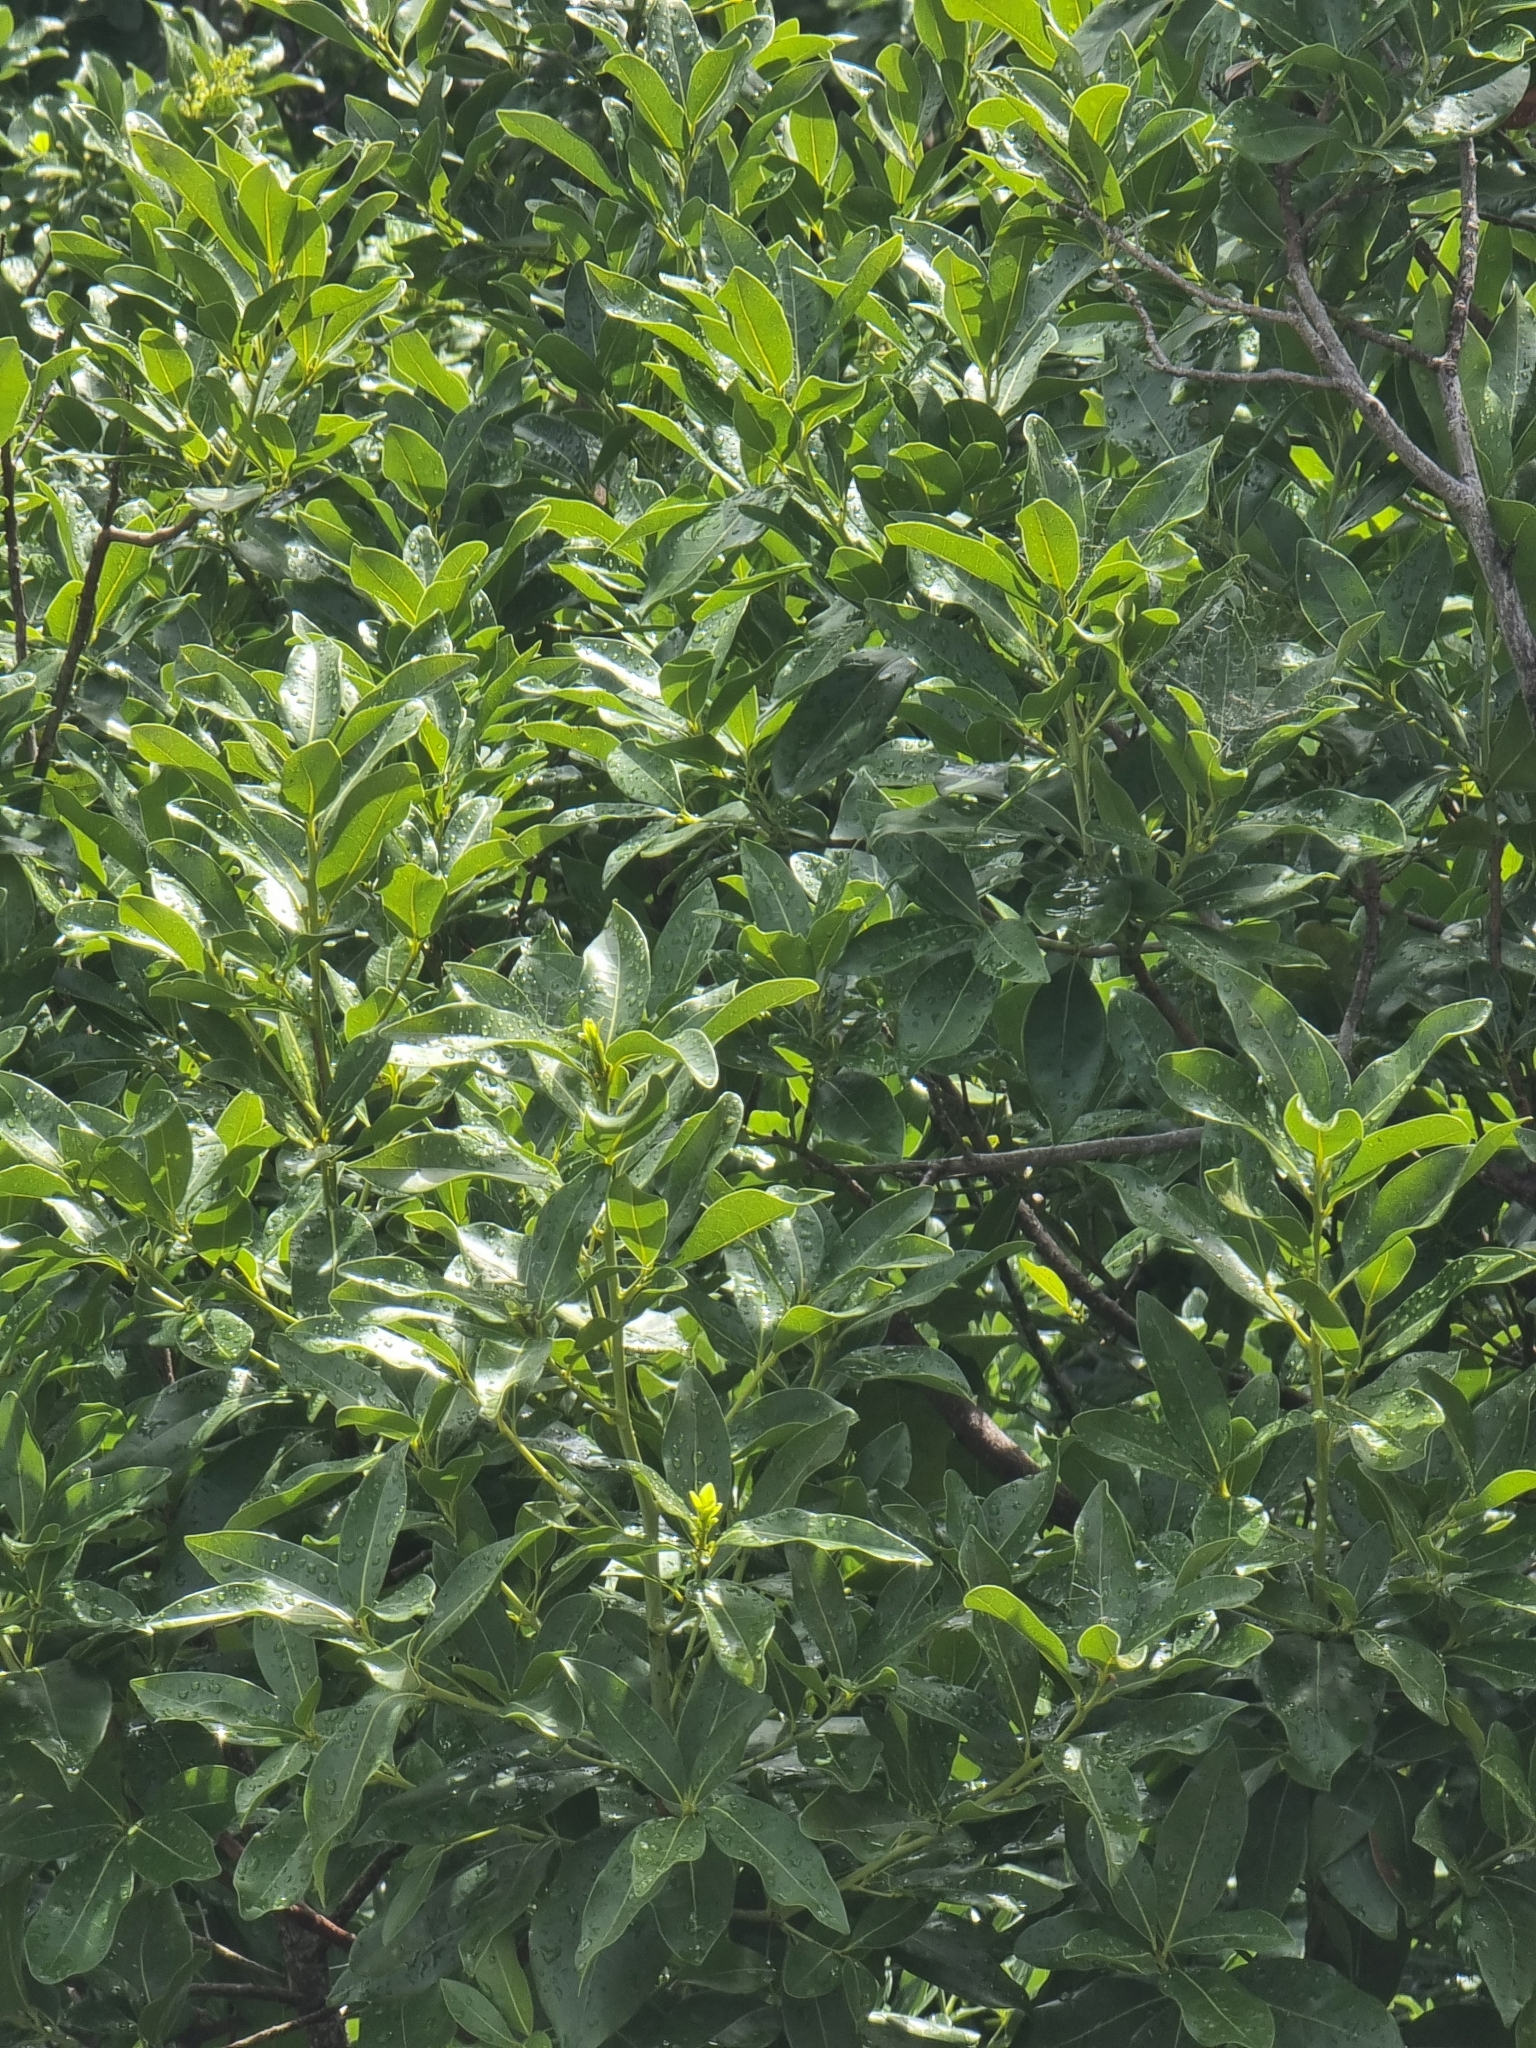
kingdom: Plantae
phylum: Tracheophyta
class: Magnoliopsida
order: Laurales
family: Lauraceae
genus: Apollonias
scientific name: Apollonias barbujana
